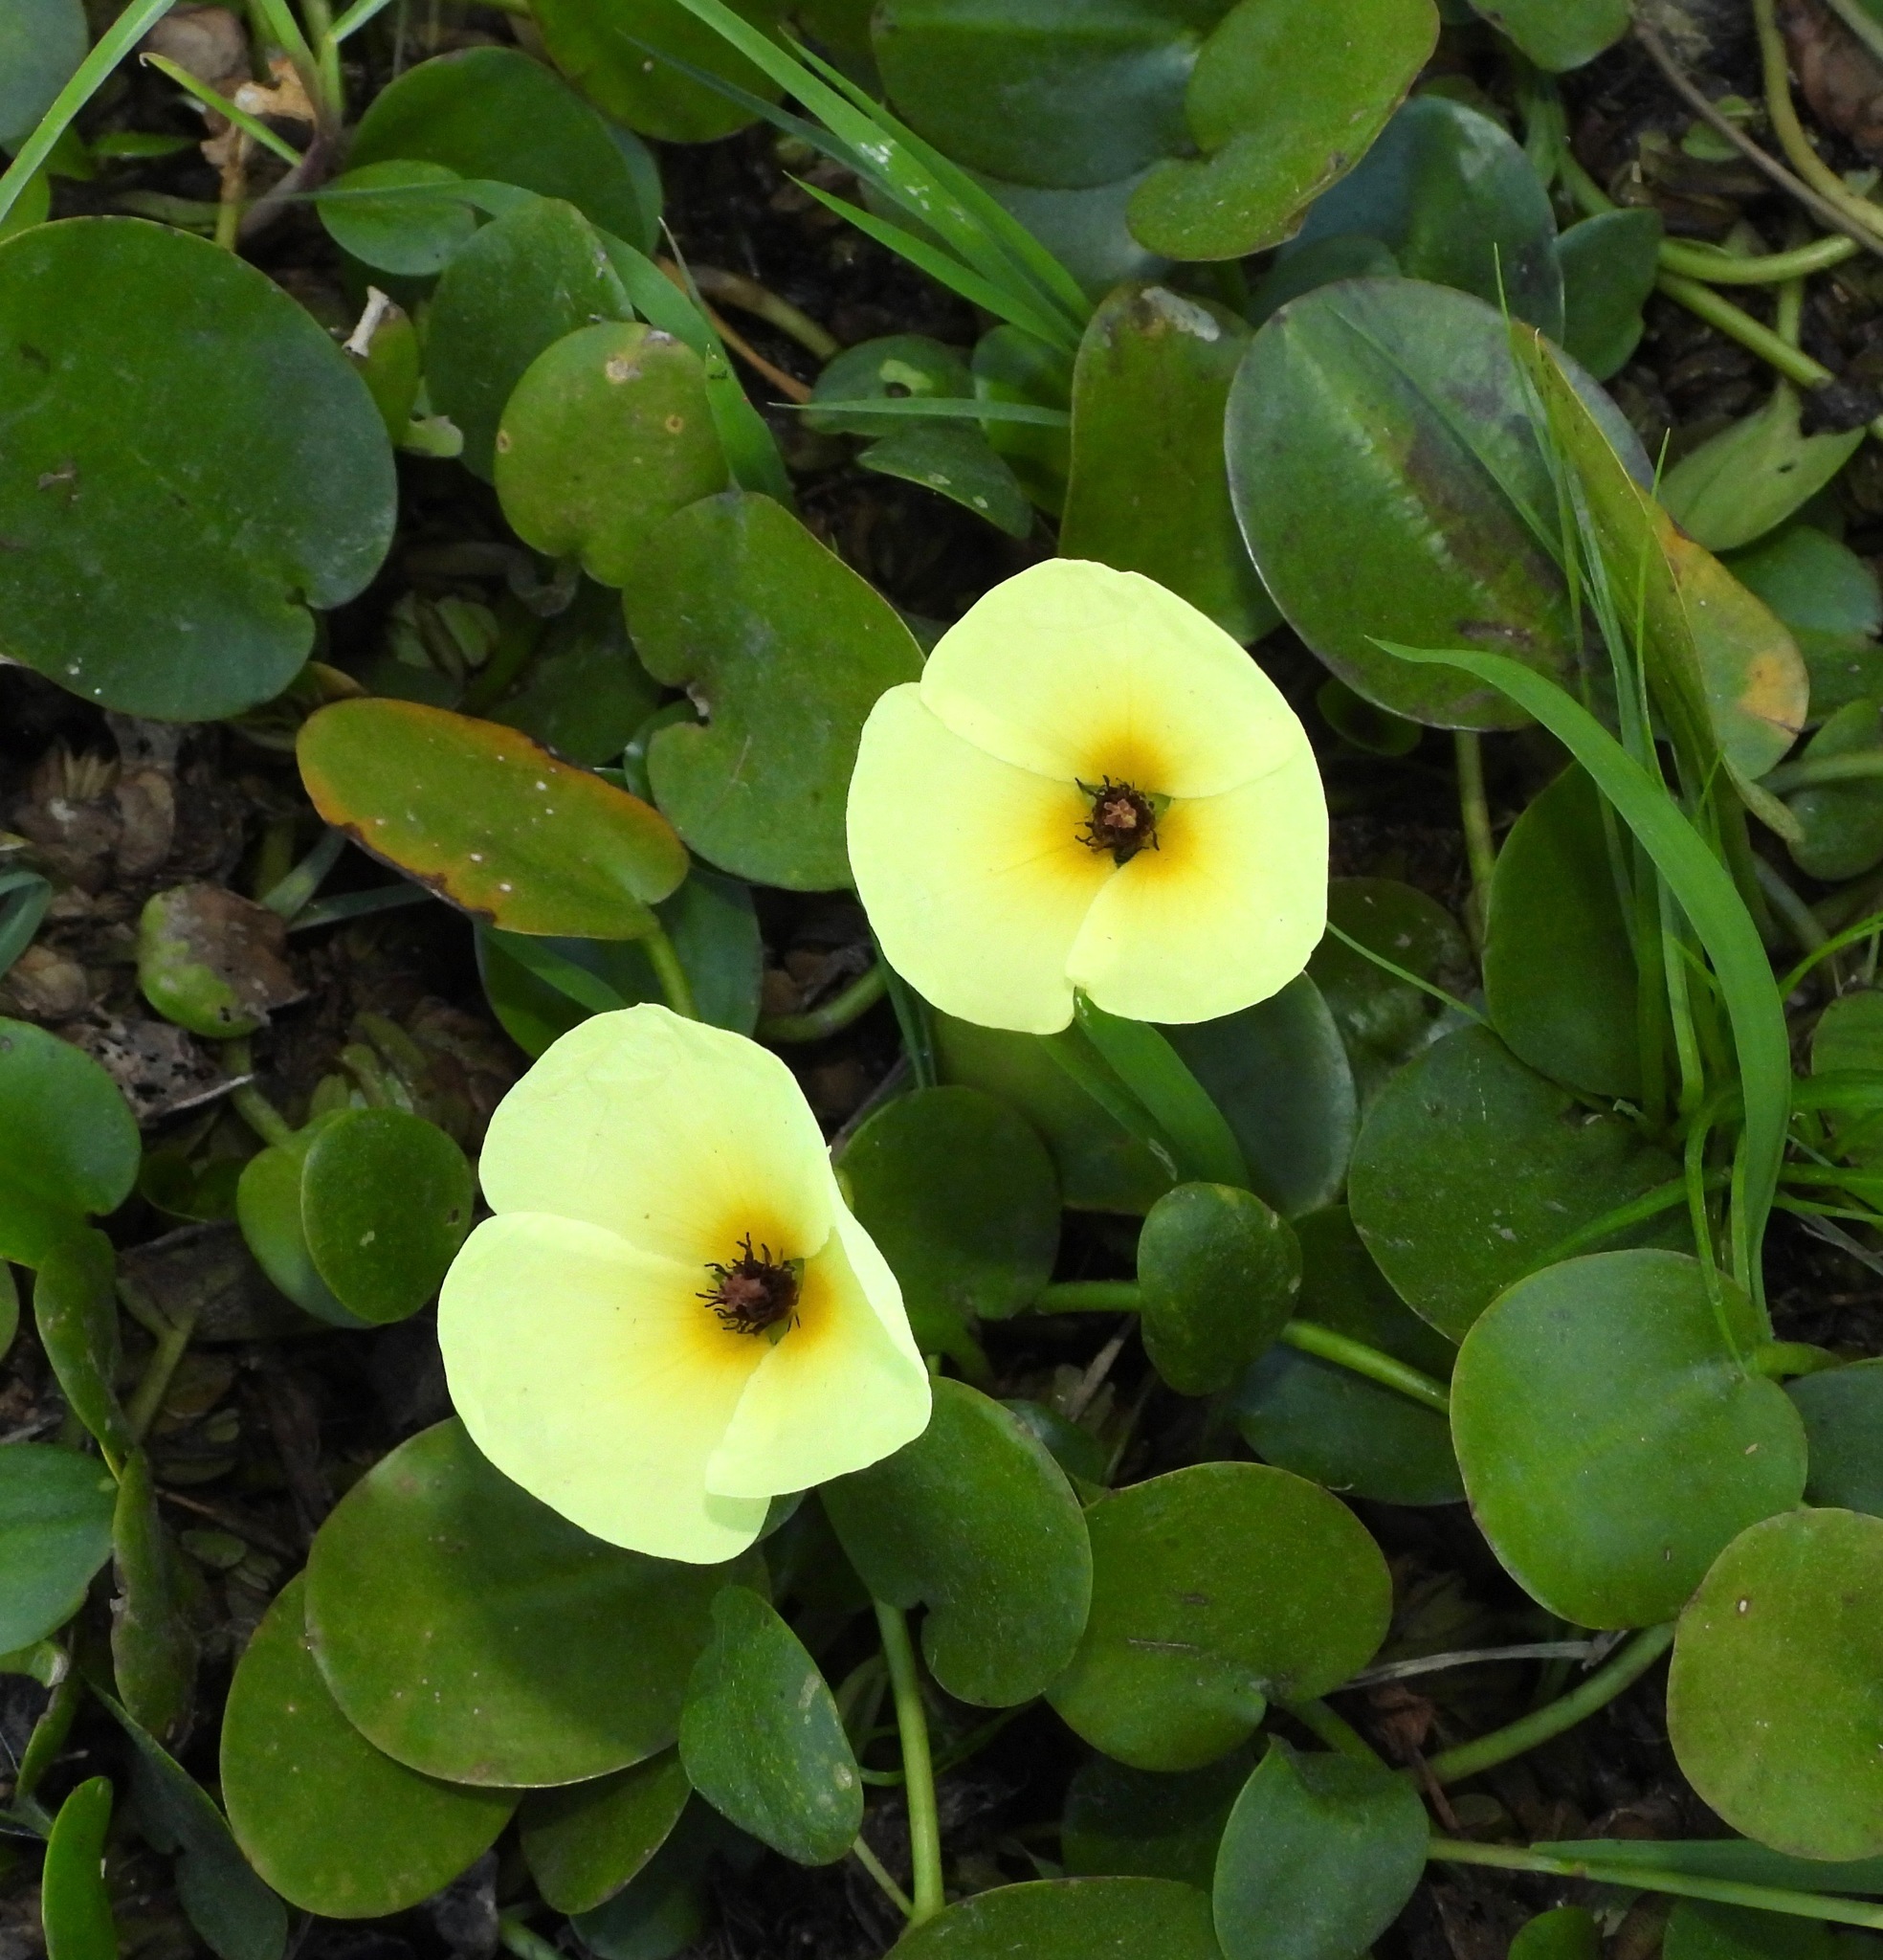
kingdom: Plantae
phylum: Tracheophyta
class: Liliopsida
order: Alismatales
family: Alismataceae
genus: Hydrocleys
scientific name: Hydrocleys nymphoides
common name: Water-poppy
